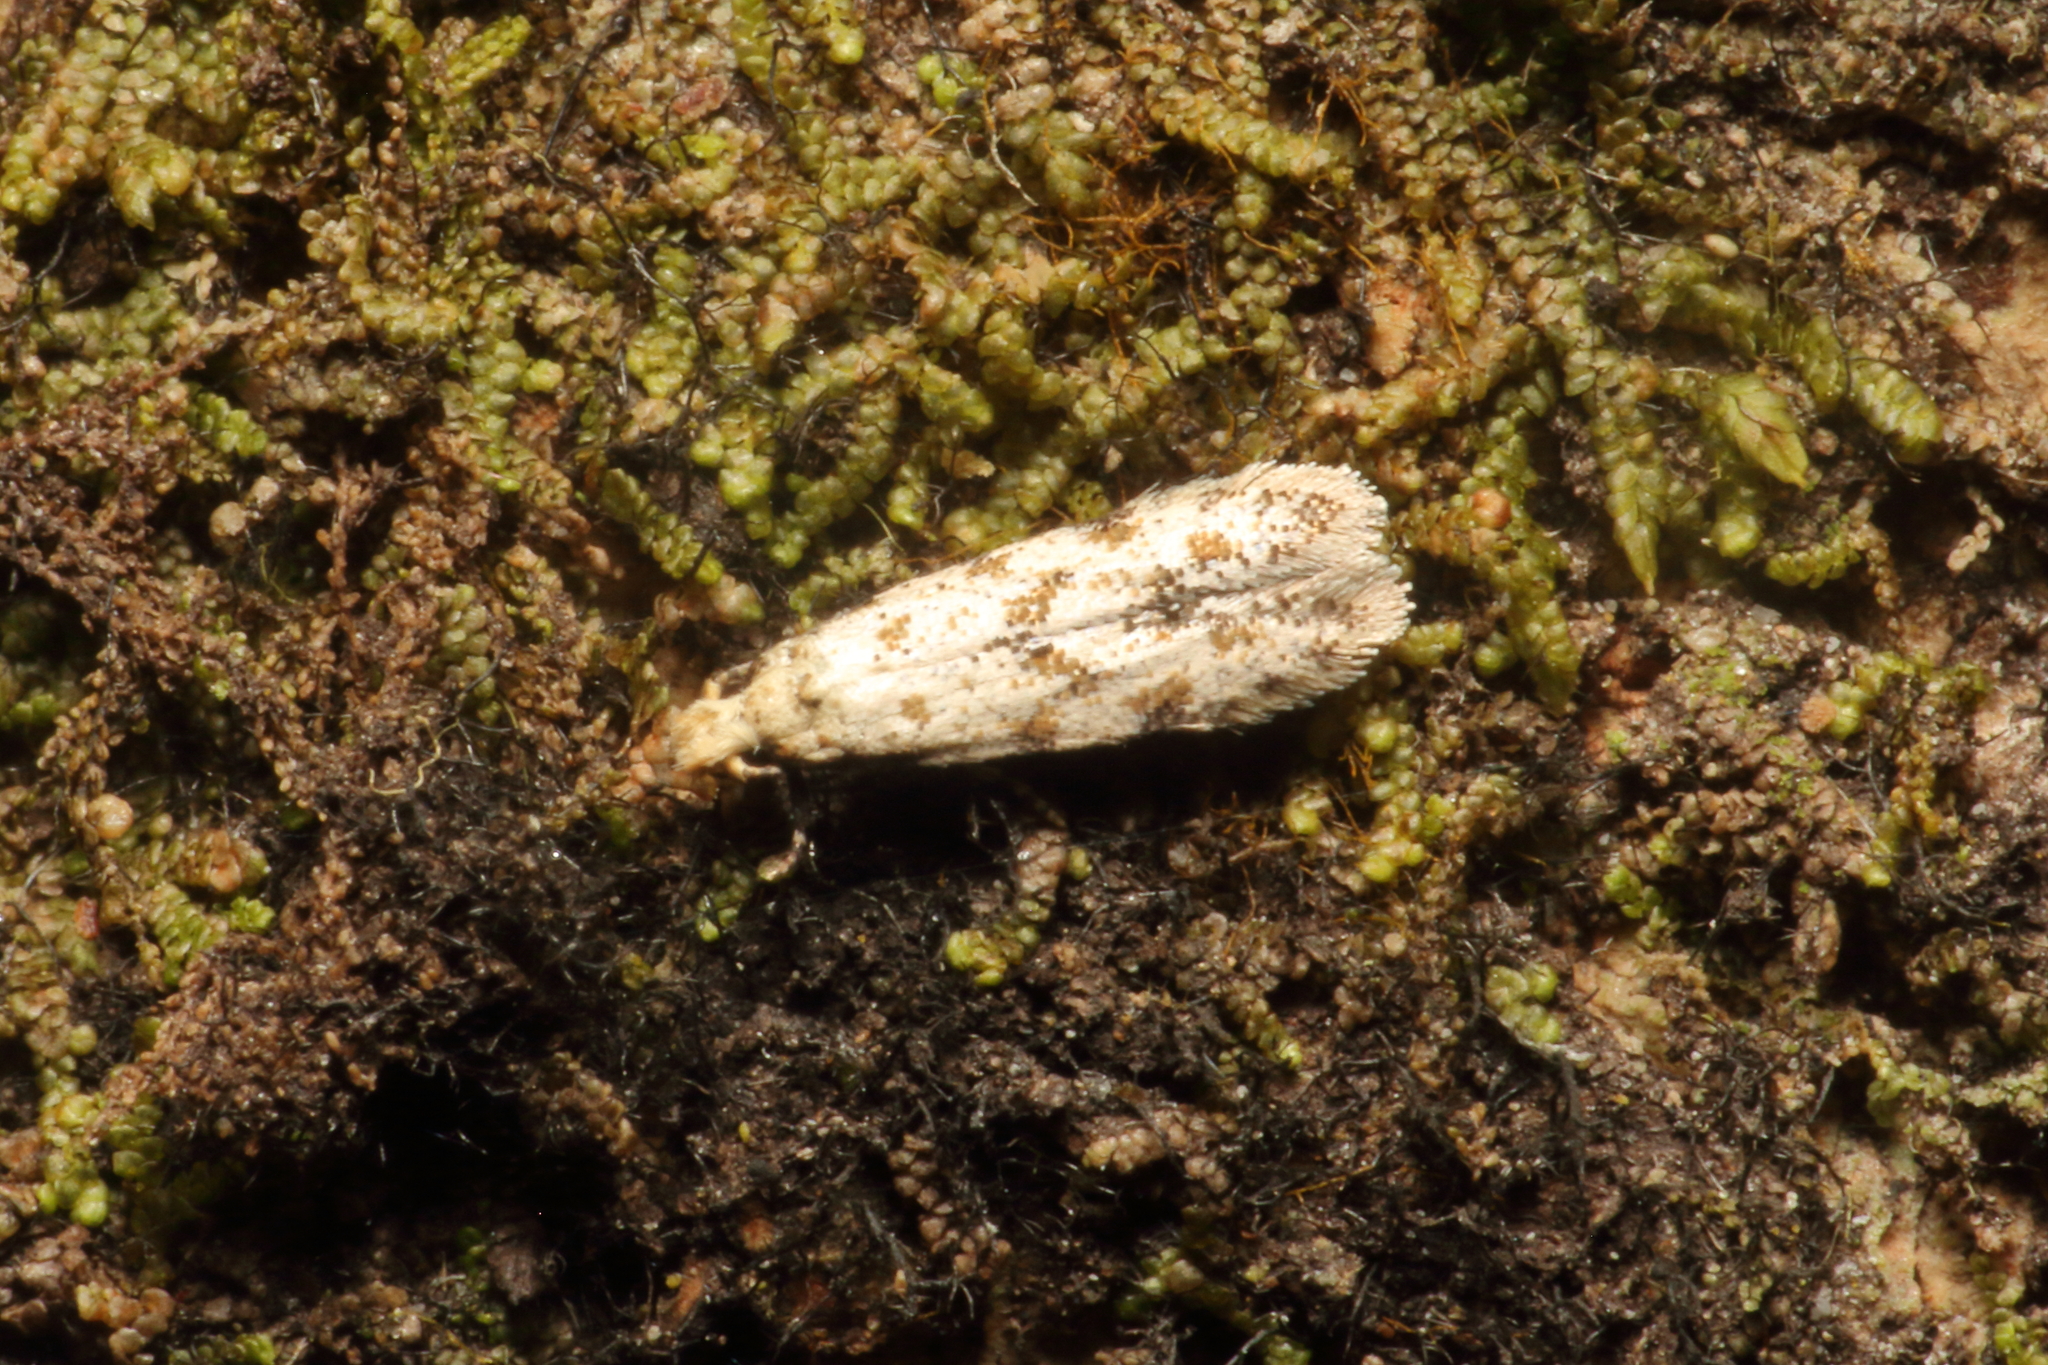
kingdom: Animalia
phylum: Arthropoda
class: Insecta
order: Lepidoptera
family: Tineidae
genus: Crypsitricha
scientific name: Crypsitricha stereota
